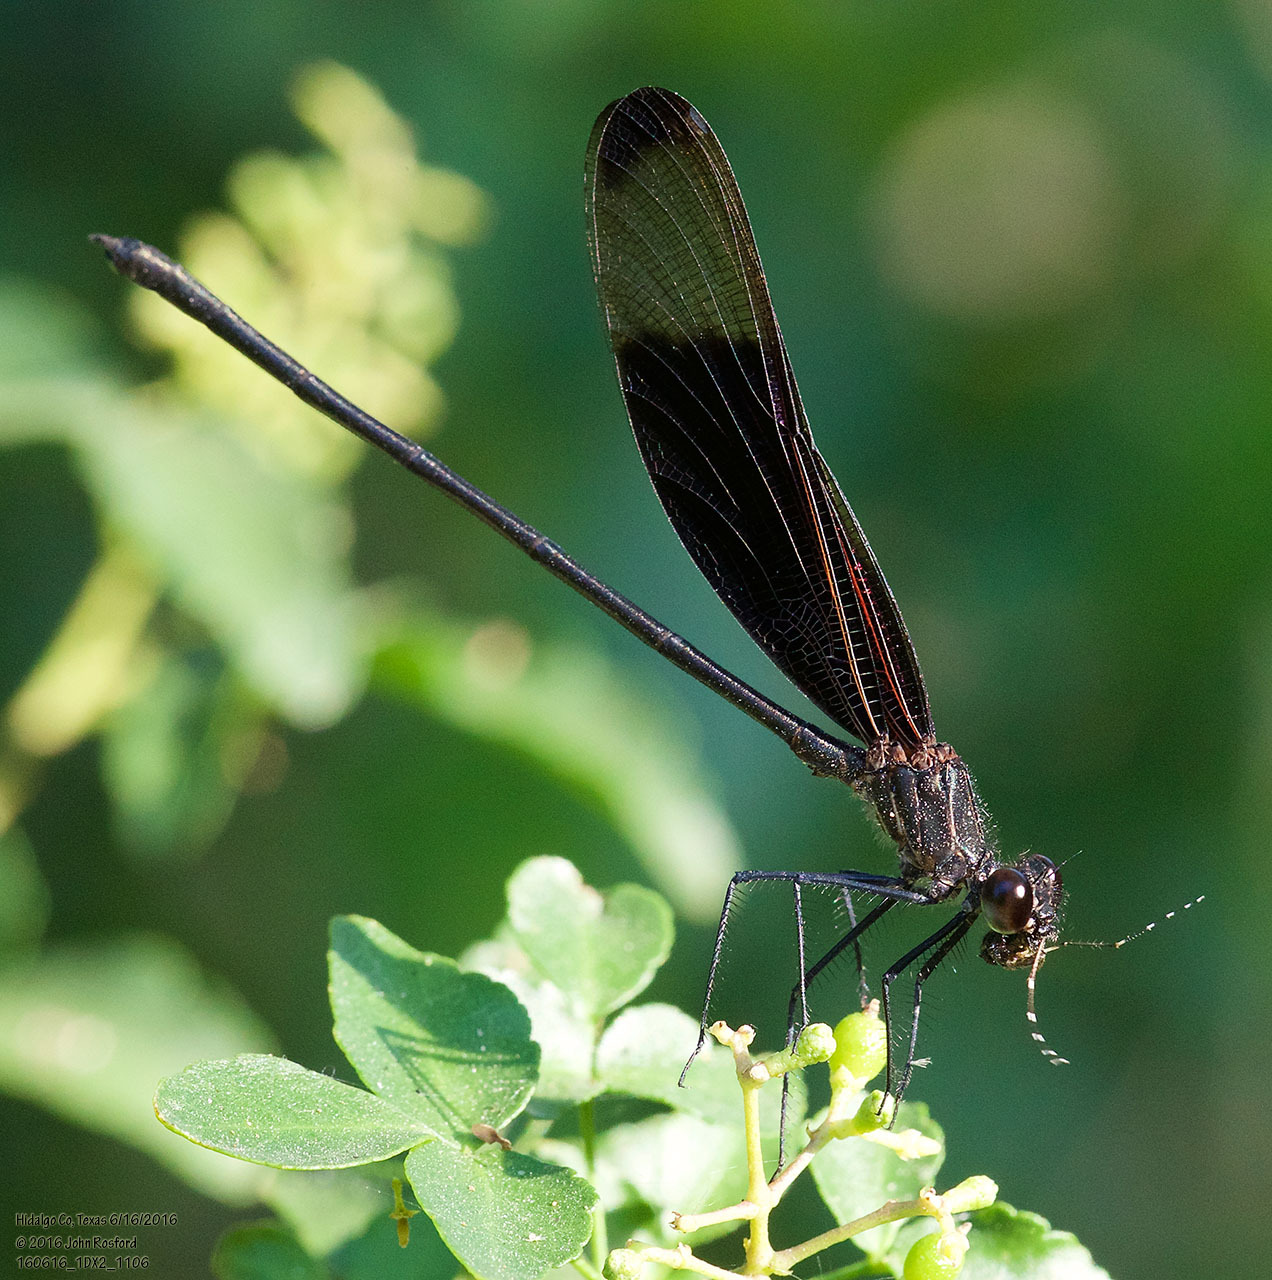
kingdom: Animalia
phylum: Arthropoda
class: Insecta
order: Odonata
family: Calopterygidae
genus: Hetaerina
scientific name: Hetaerina titia
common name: Smoky rubyspot
